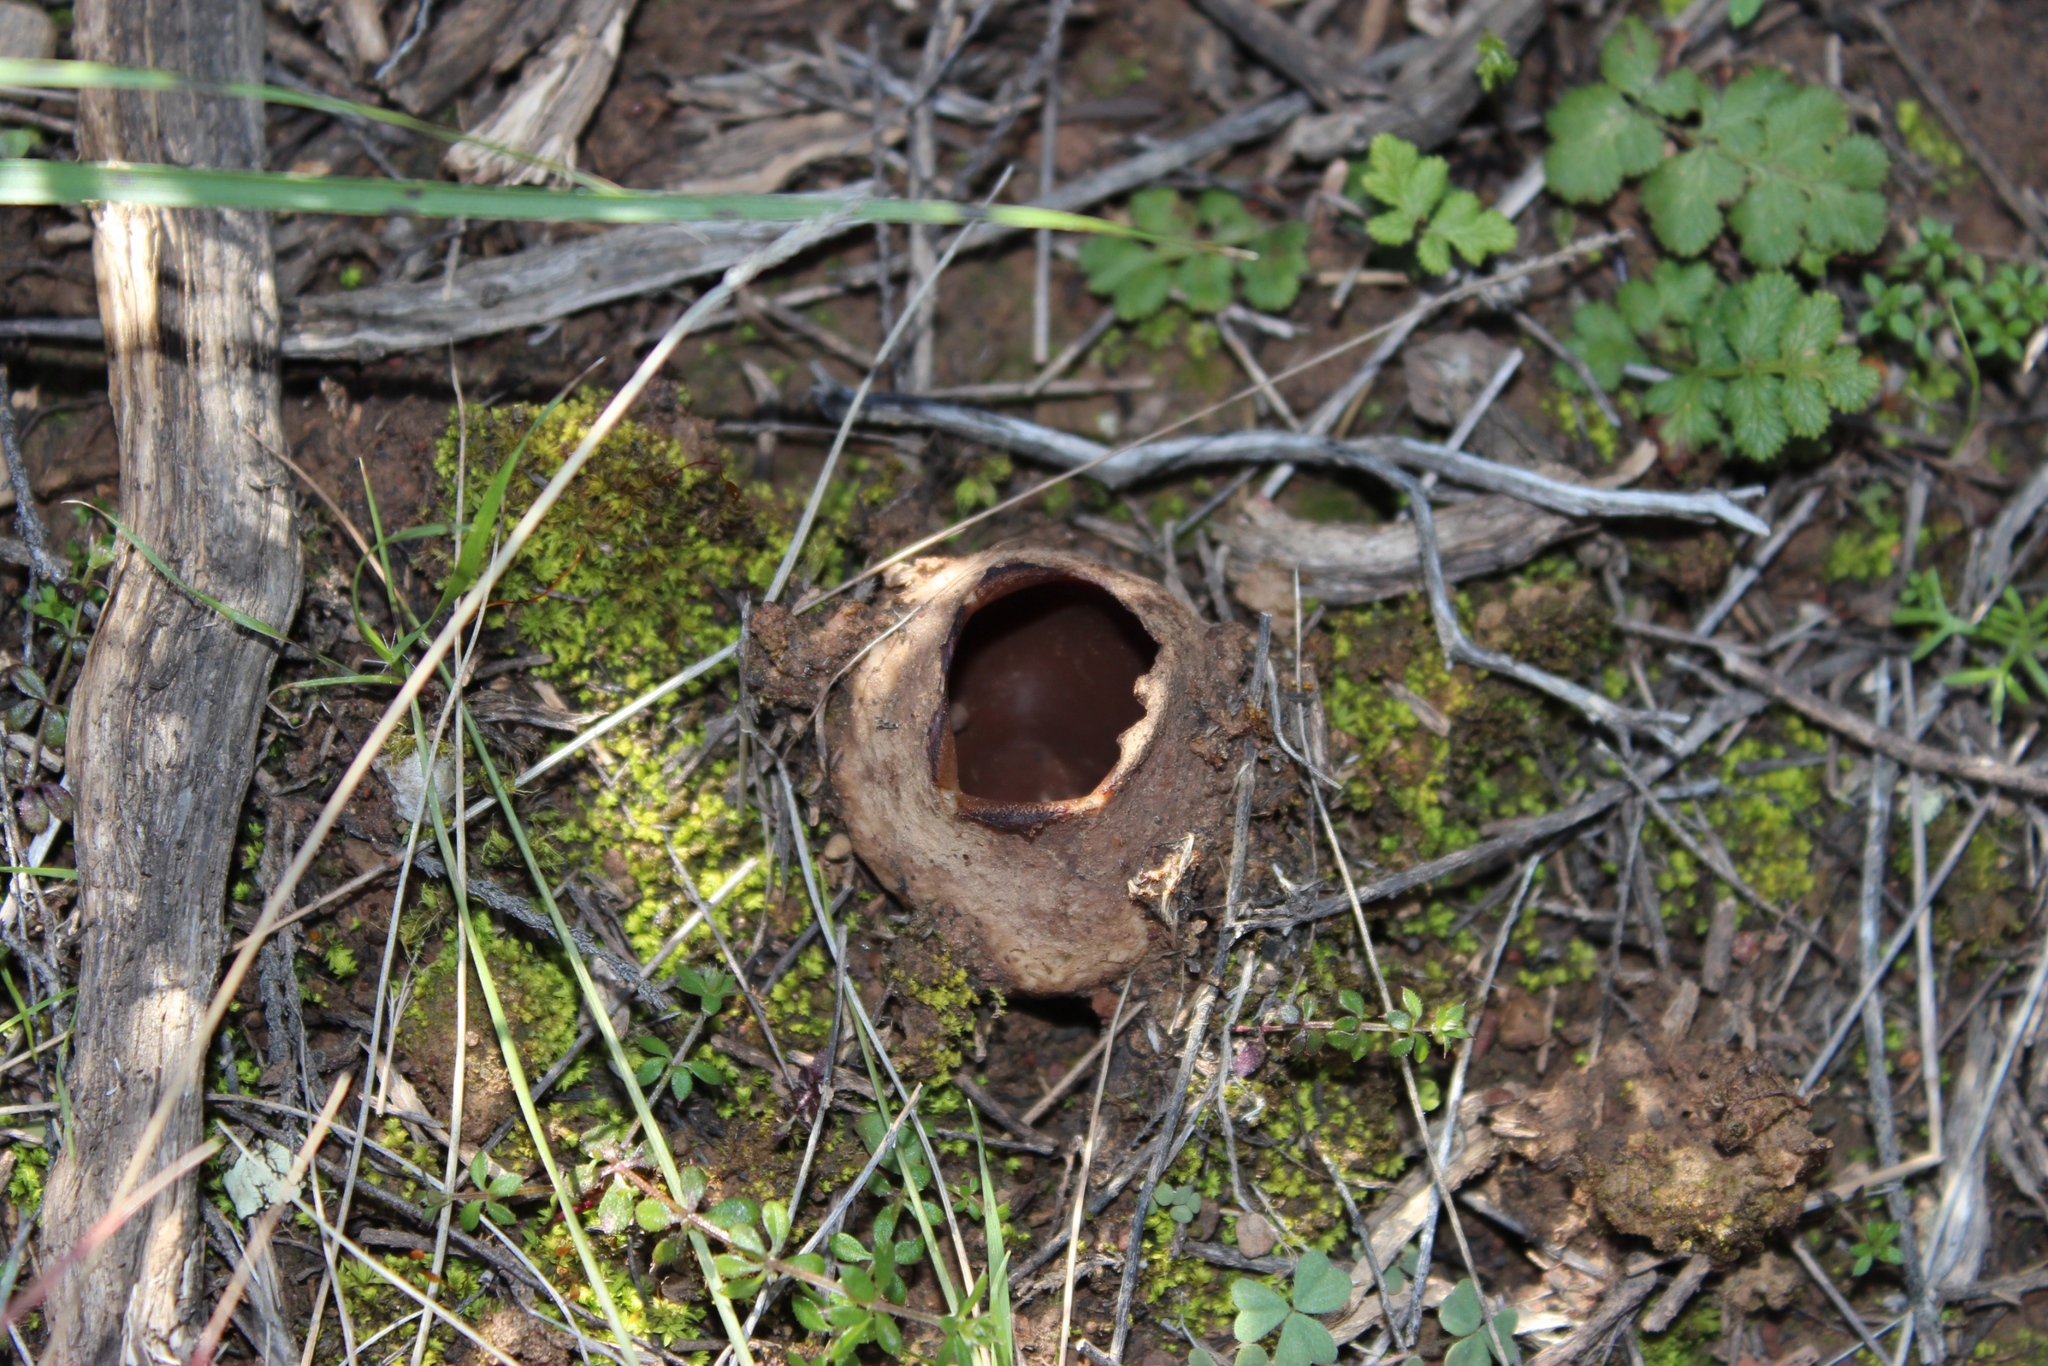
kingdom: Fungi
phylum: Ascomycota
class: Pezizomycetes
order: Pezizales
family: Helvellaceae
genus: Dissingia
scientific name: Dissingia leucomelaena
